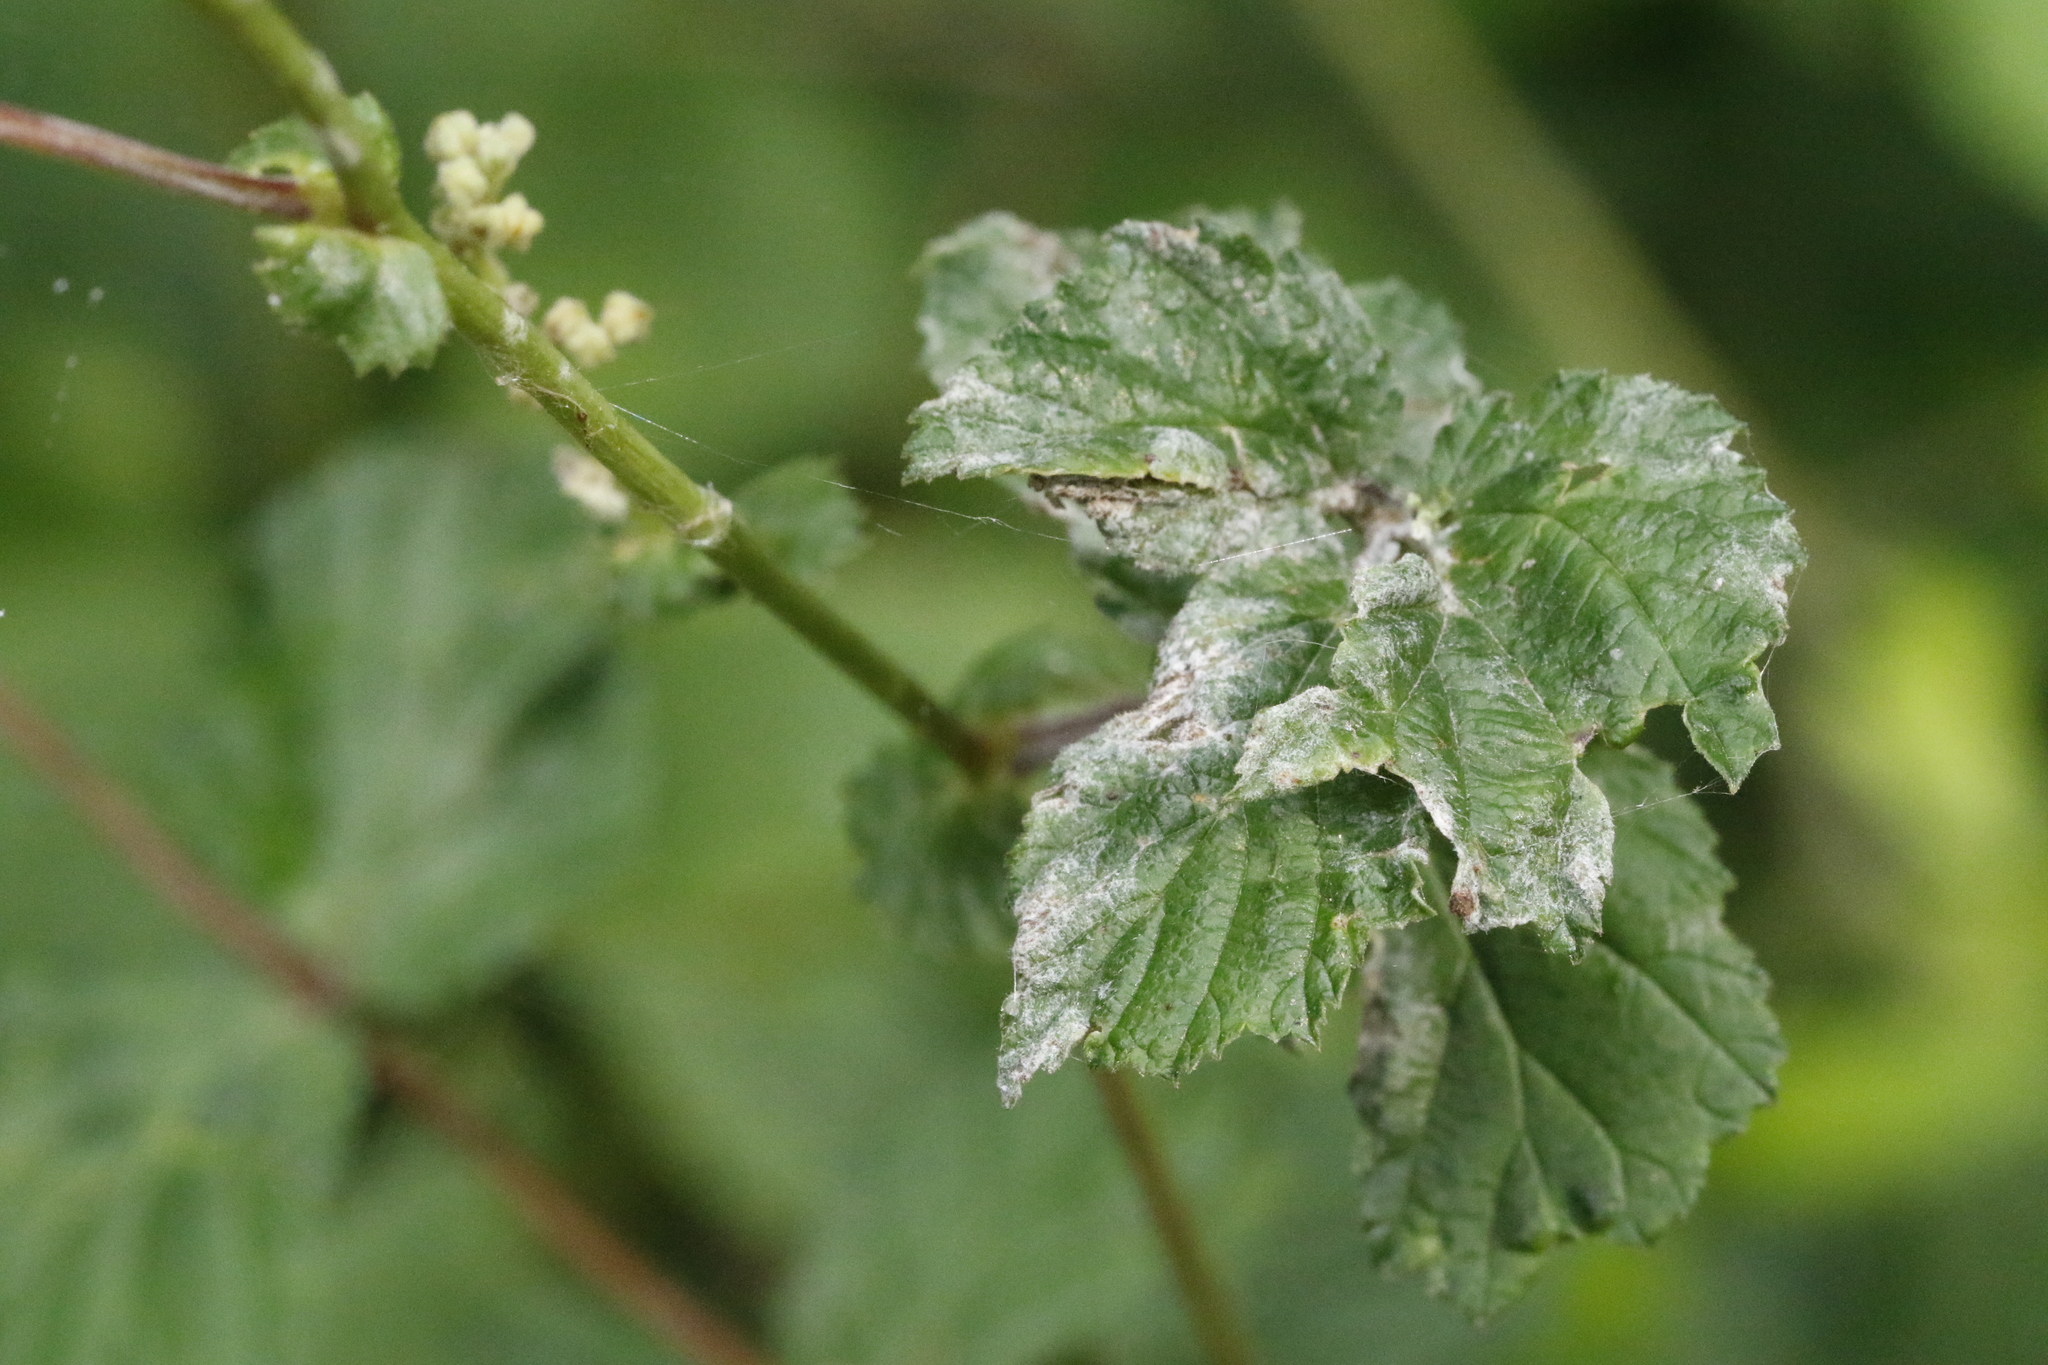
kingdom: Fungi
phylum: Ascomycota
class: Leotiomycetes
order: Helotiales
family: Erysiphaceae
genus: Podosphaera
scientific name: Podosphaera filipendulae
